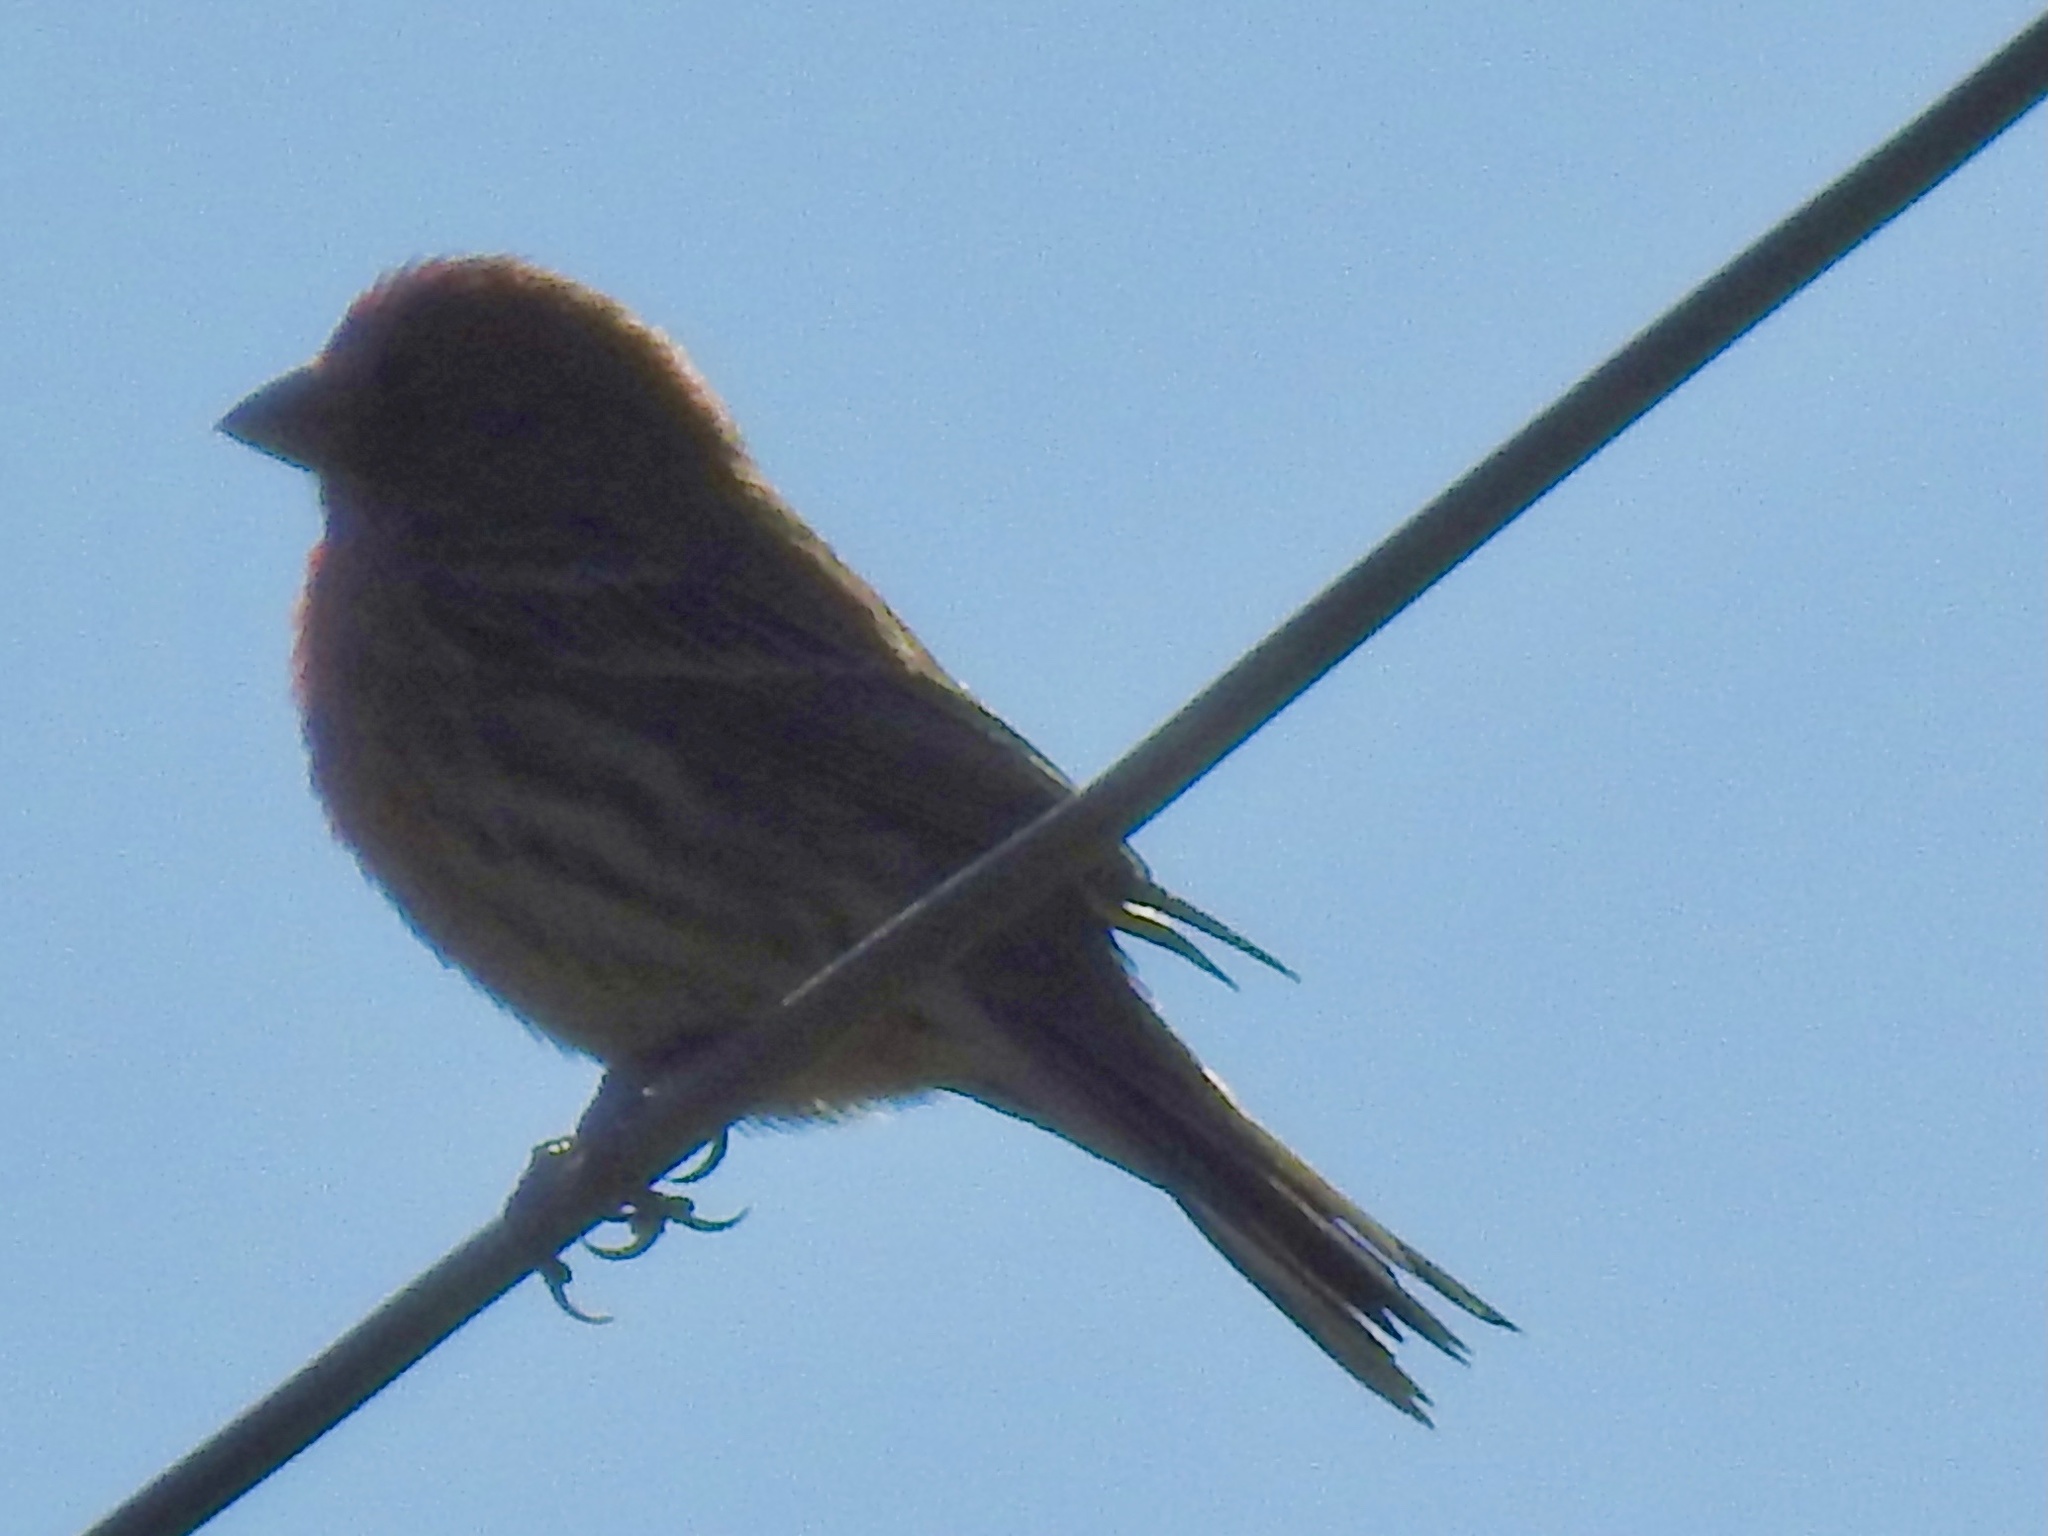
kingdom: Animalia
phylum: Chordata
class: Aves
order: Passeriformes
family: Fringillidae
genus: Haemorhous
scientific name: Haemorhous mexicanus
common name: House finch
